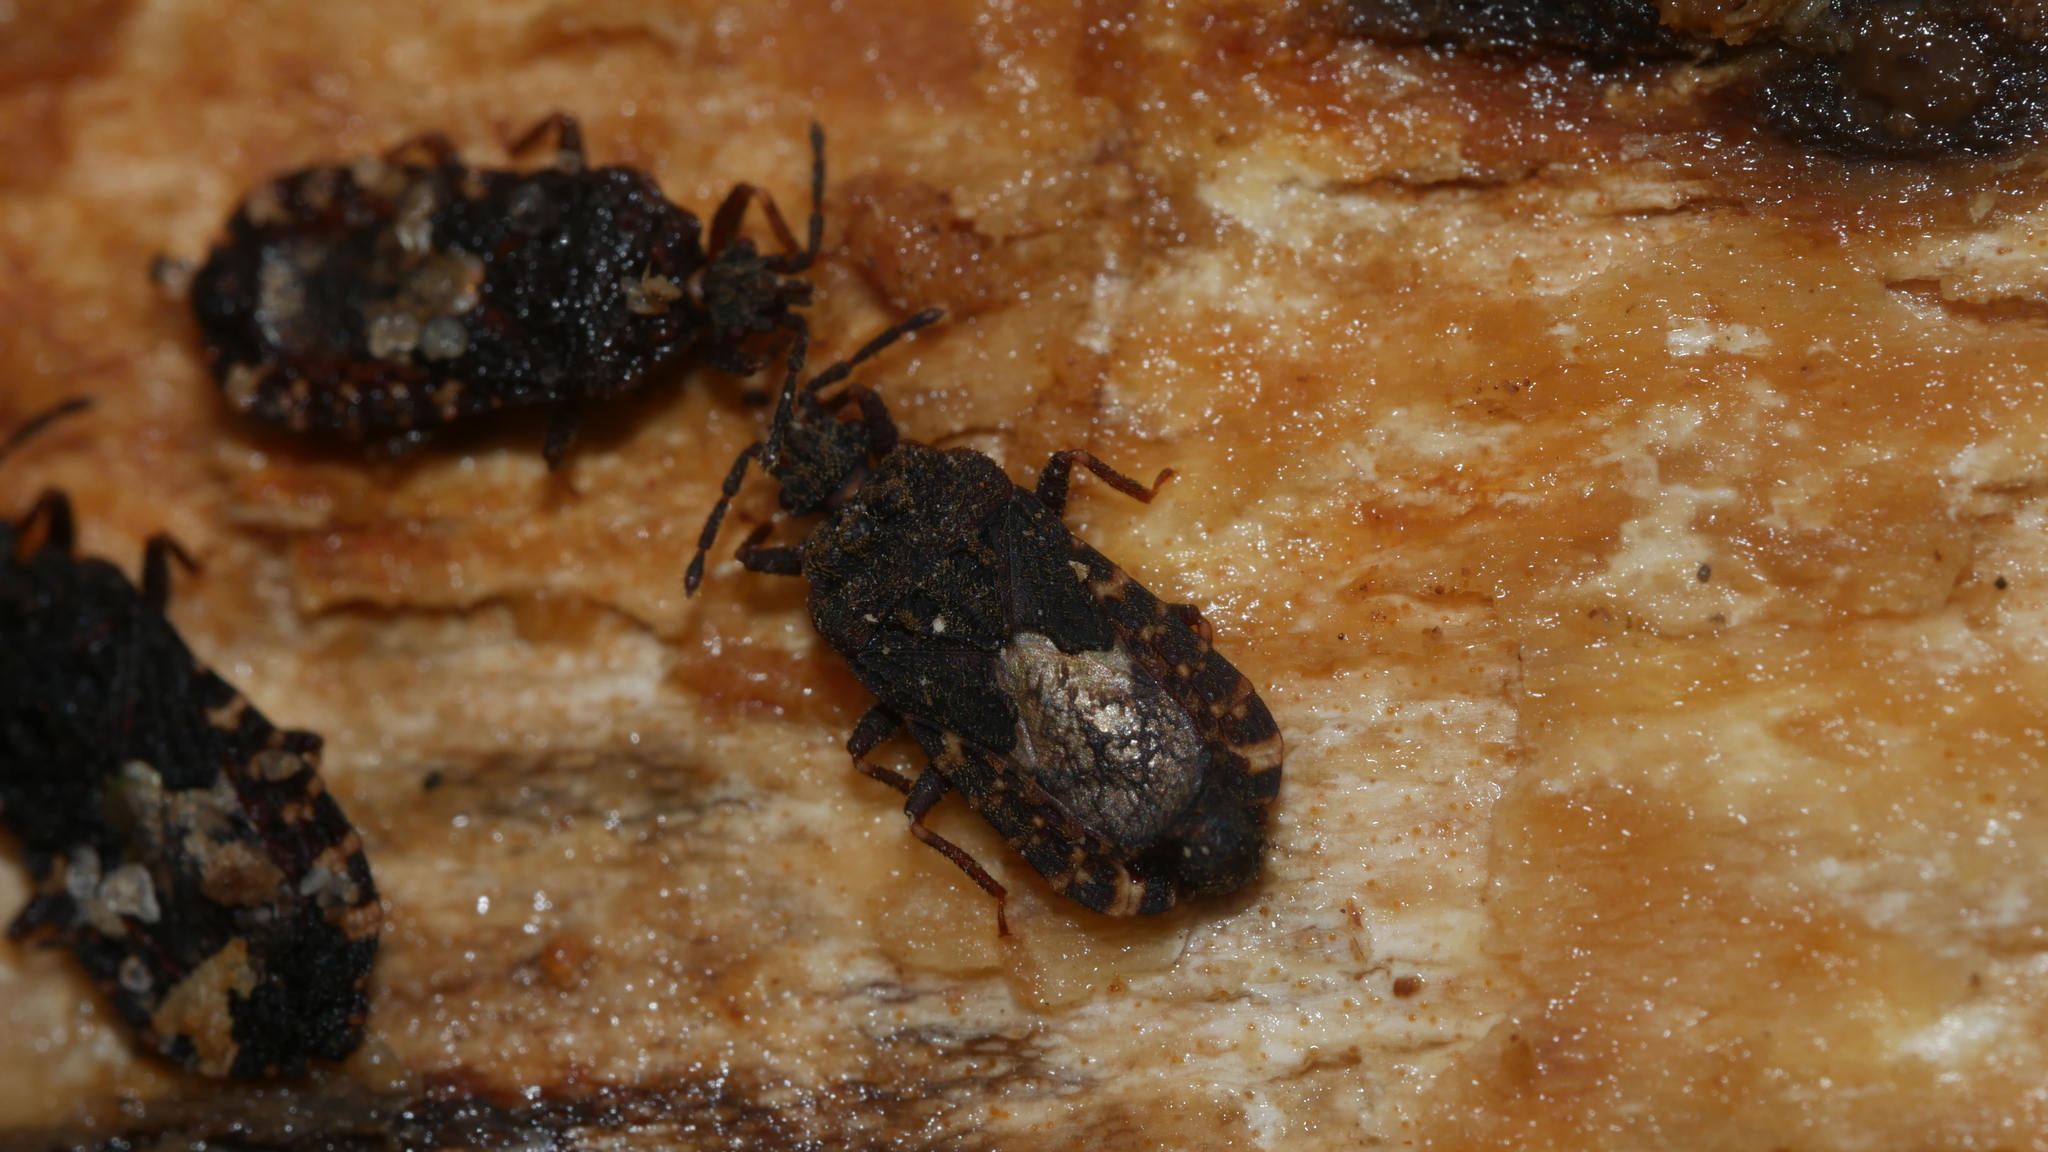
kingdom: Animalia
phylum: Arthropoda
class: Insecta
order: Hemiptera
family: Aradidae
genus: Mezira
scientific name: Mezira
